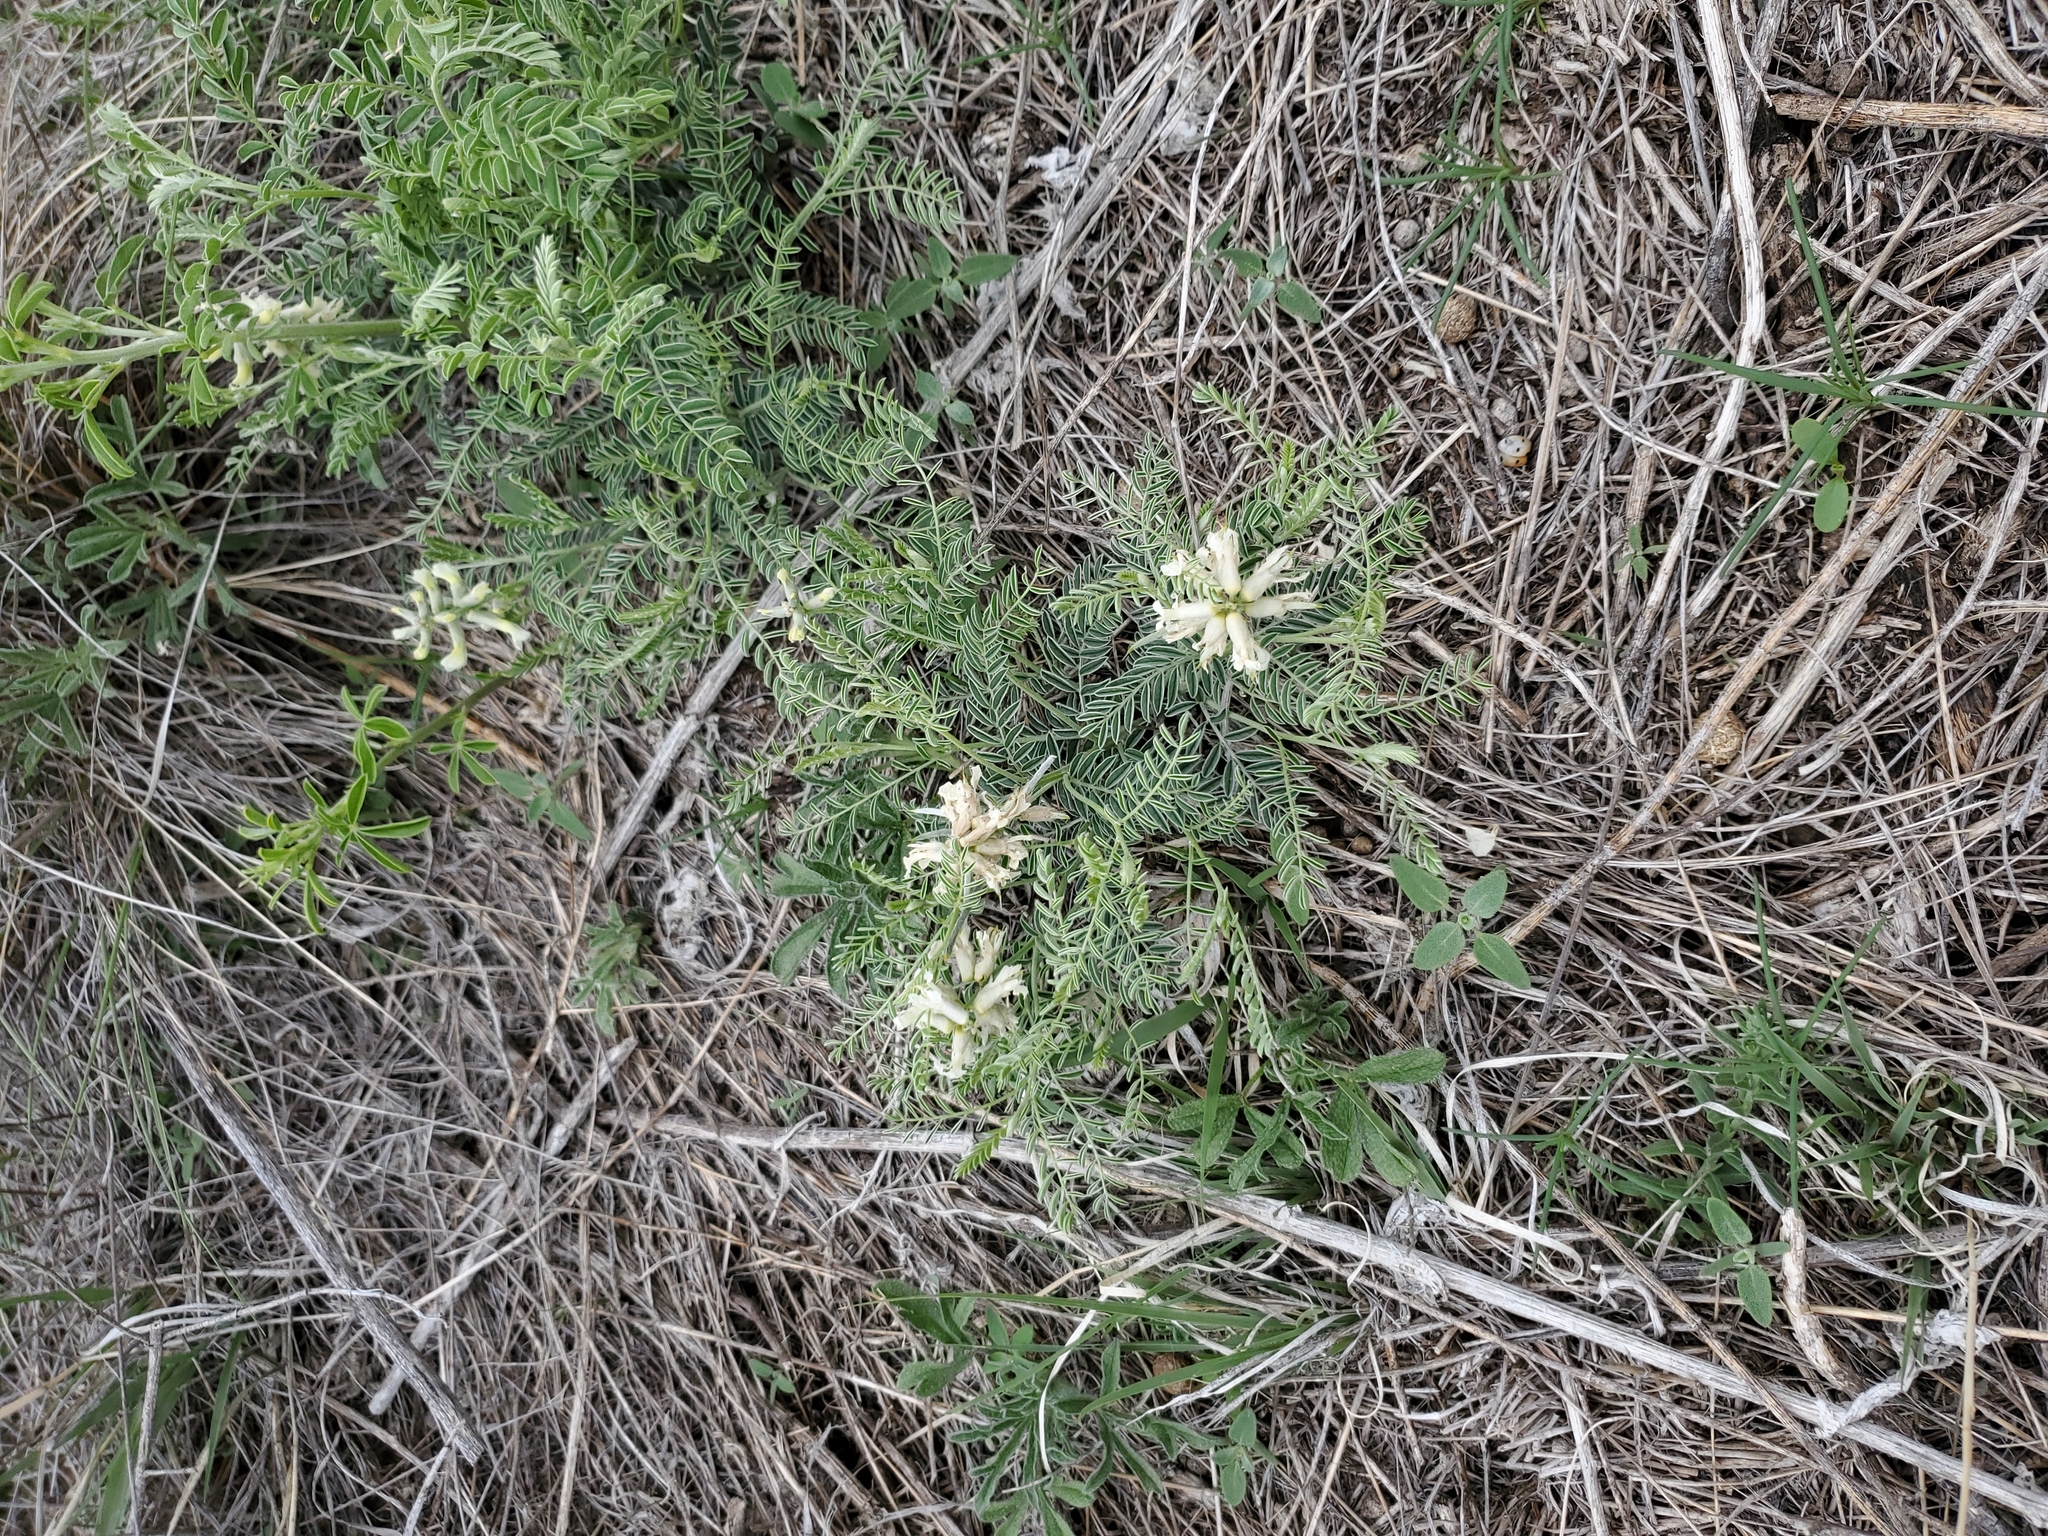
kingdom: Plantae
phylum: Tracheophyta
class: Magnoliopsida
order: Fabales
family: Fabaceae
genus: Sophora
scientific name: Sophora nuttalliana
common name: Silky sophora
